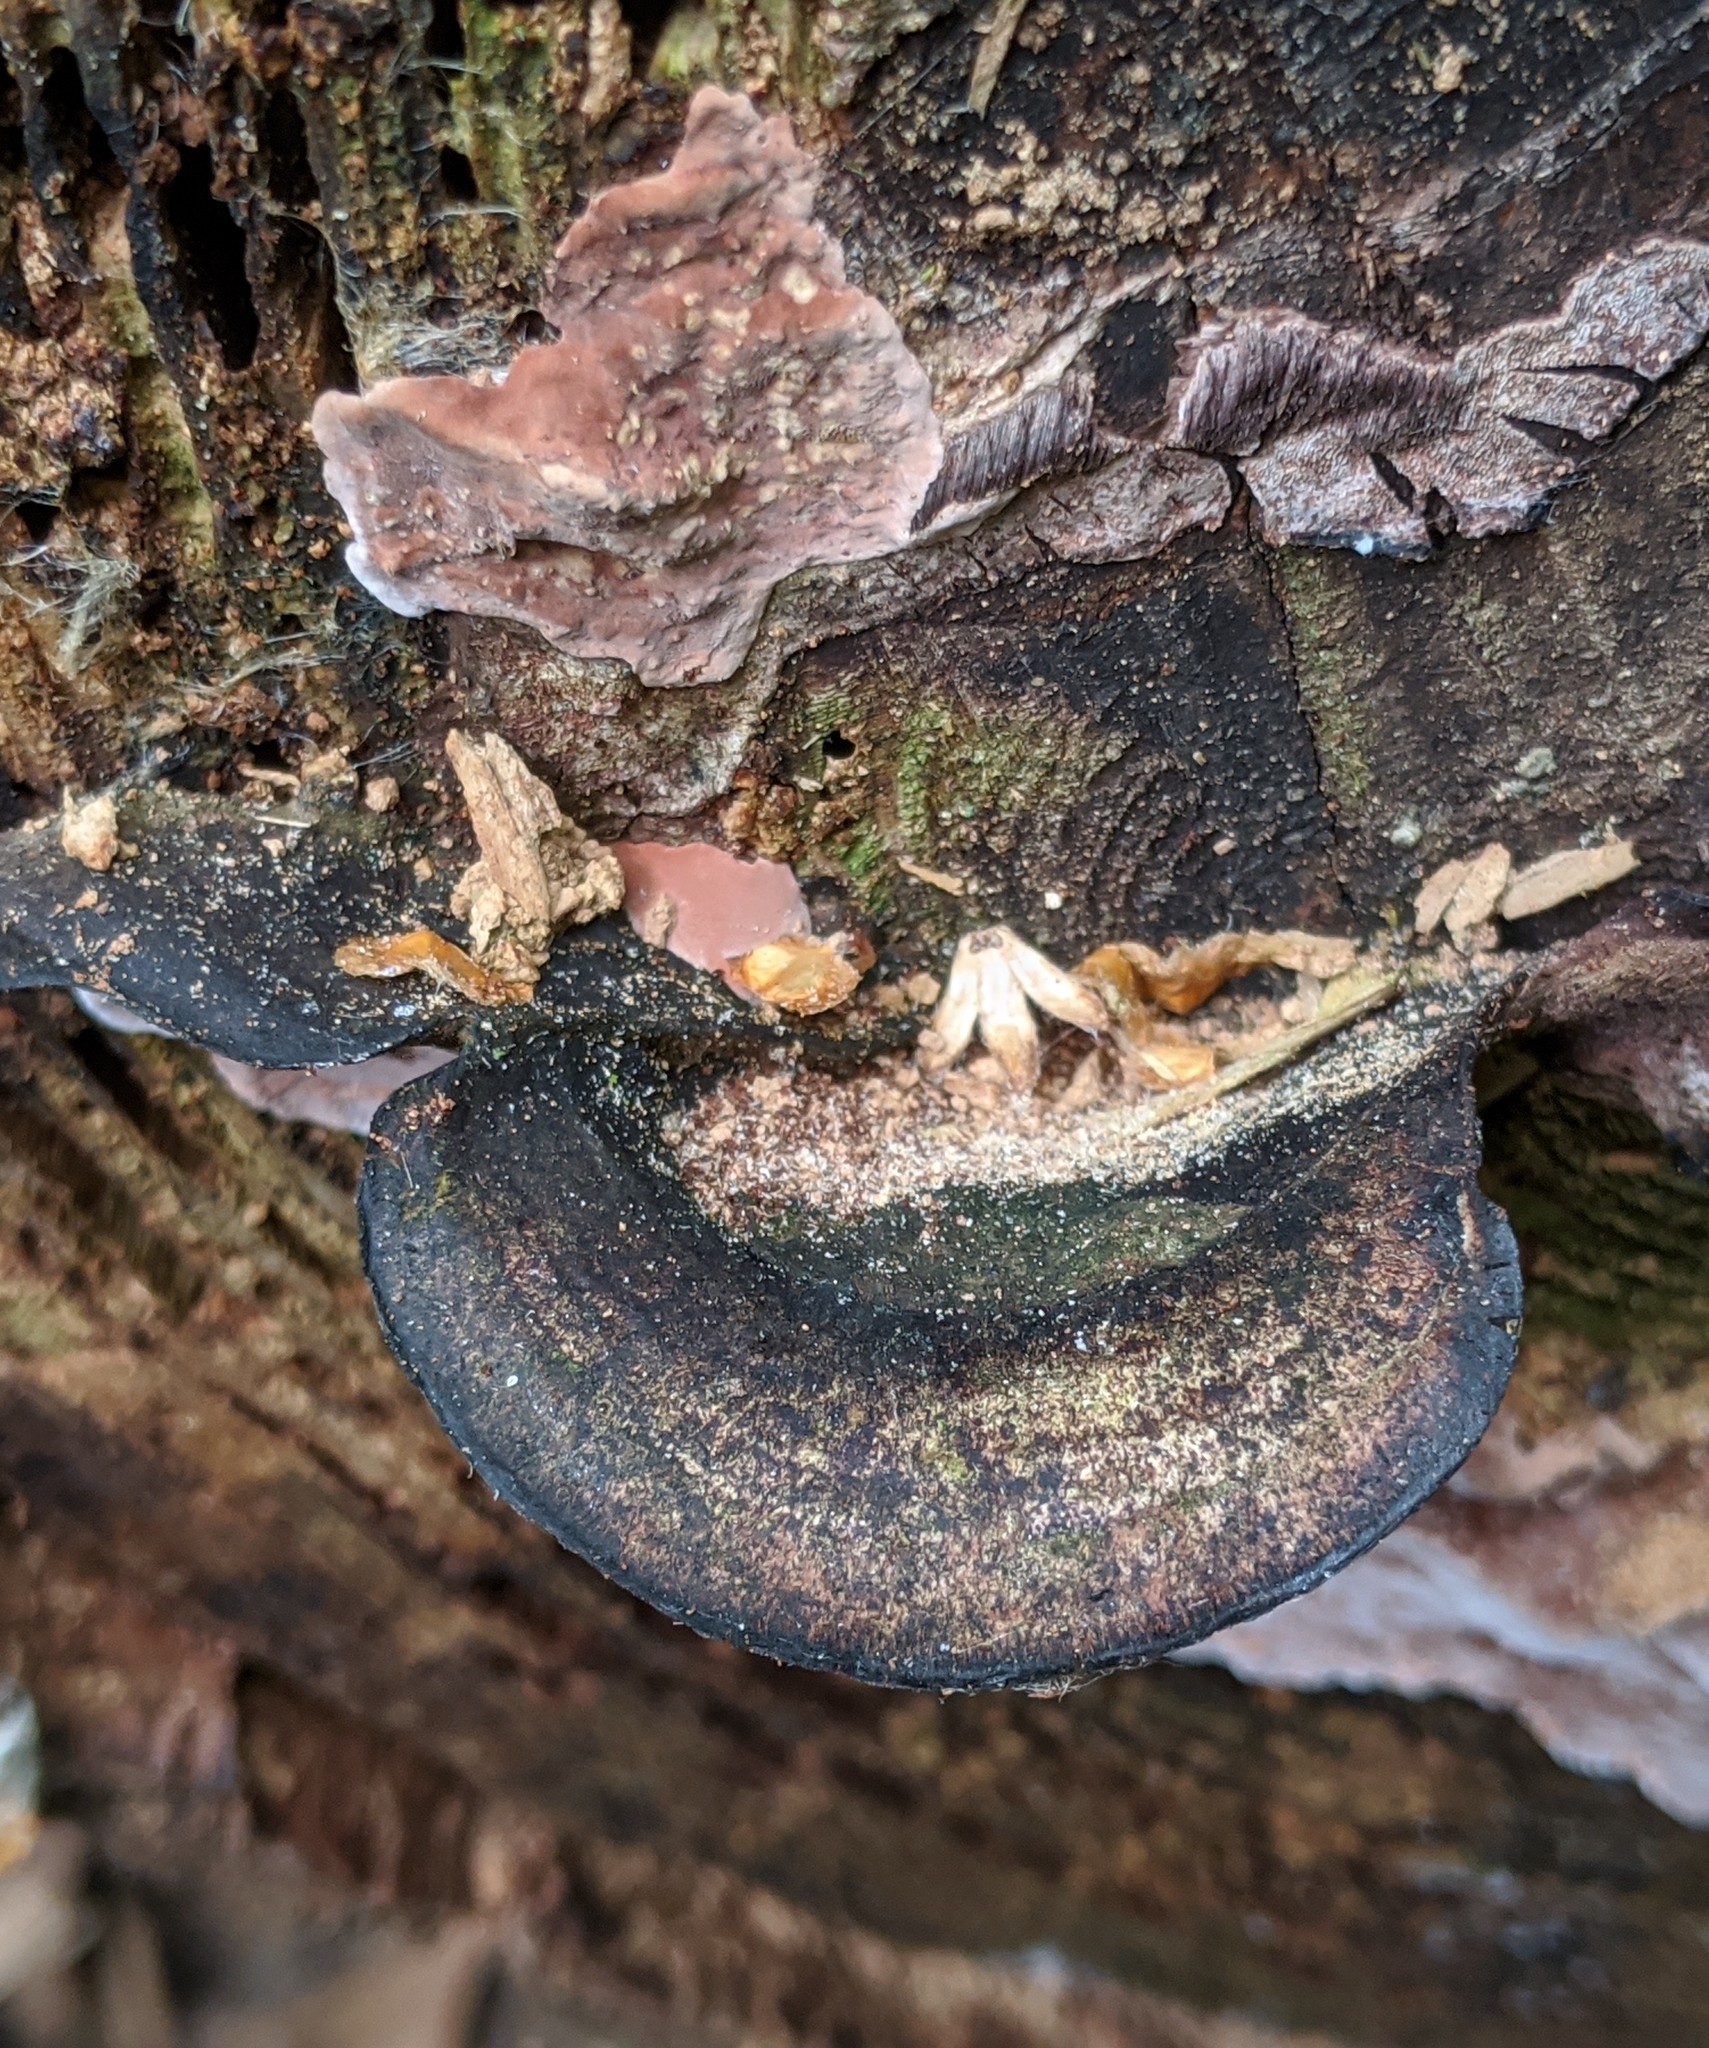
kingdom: Fungi
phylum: Basidiomycota
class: Agaricomycetes
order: Polyporales
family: Steccherinaceae
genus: Nigroporus
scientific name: Nigroporus vinosus
